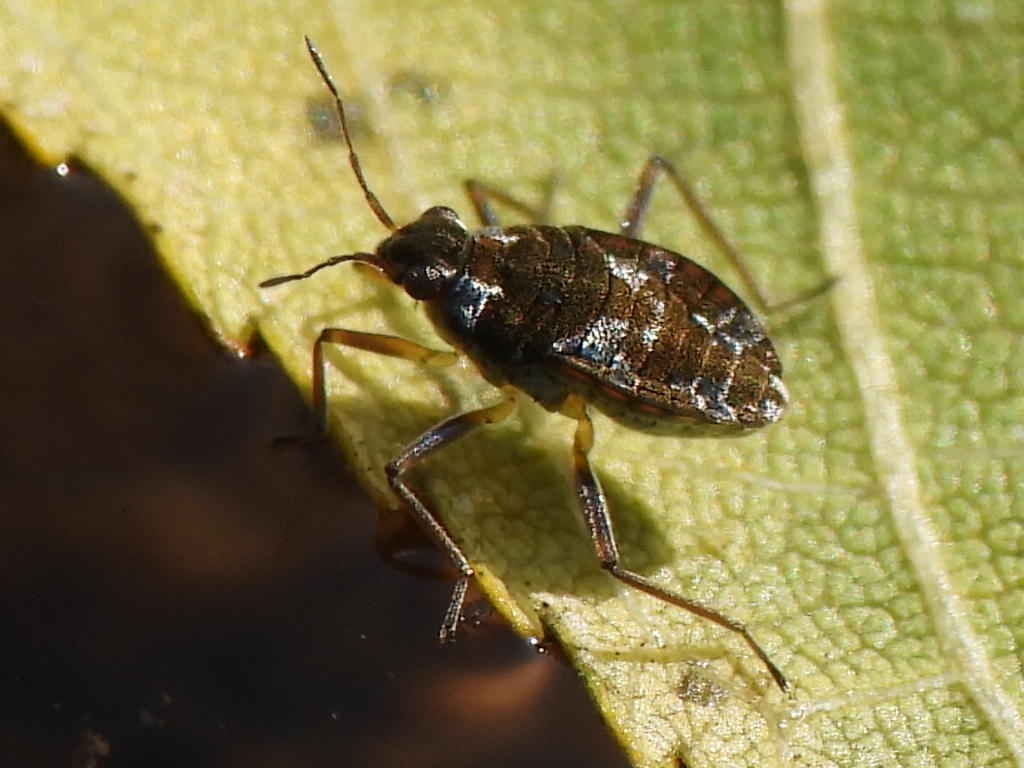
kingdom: Animalia
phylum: Arthropoda
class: Insecta
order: Hemiptera
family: Veliidae
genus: Microvelia
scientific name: Microvelia americana
